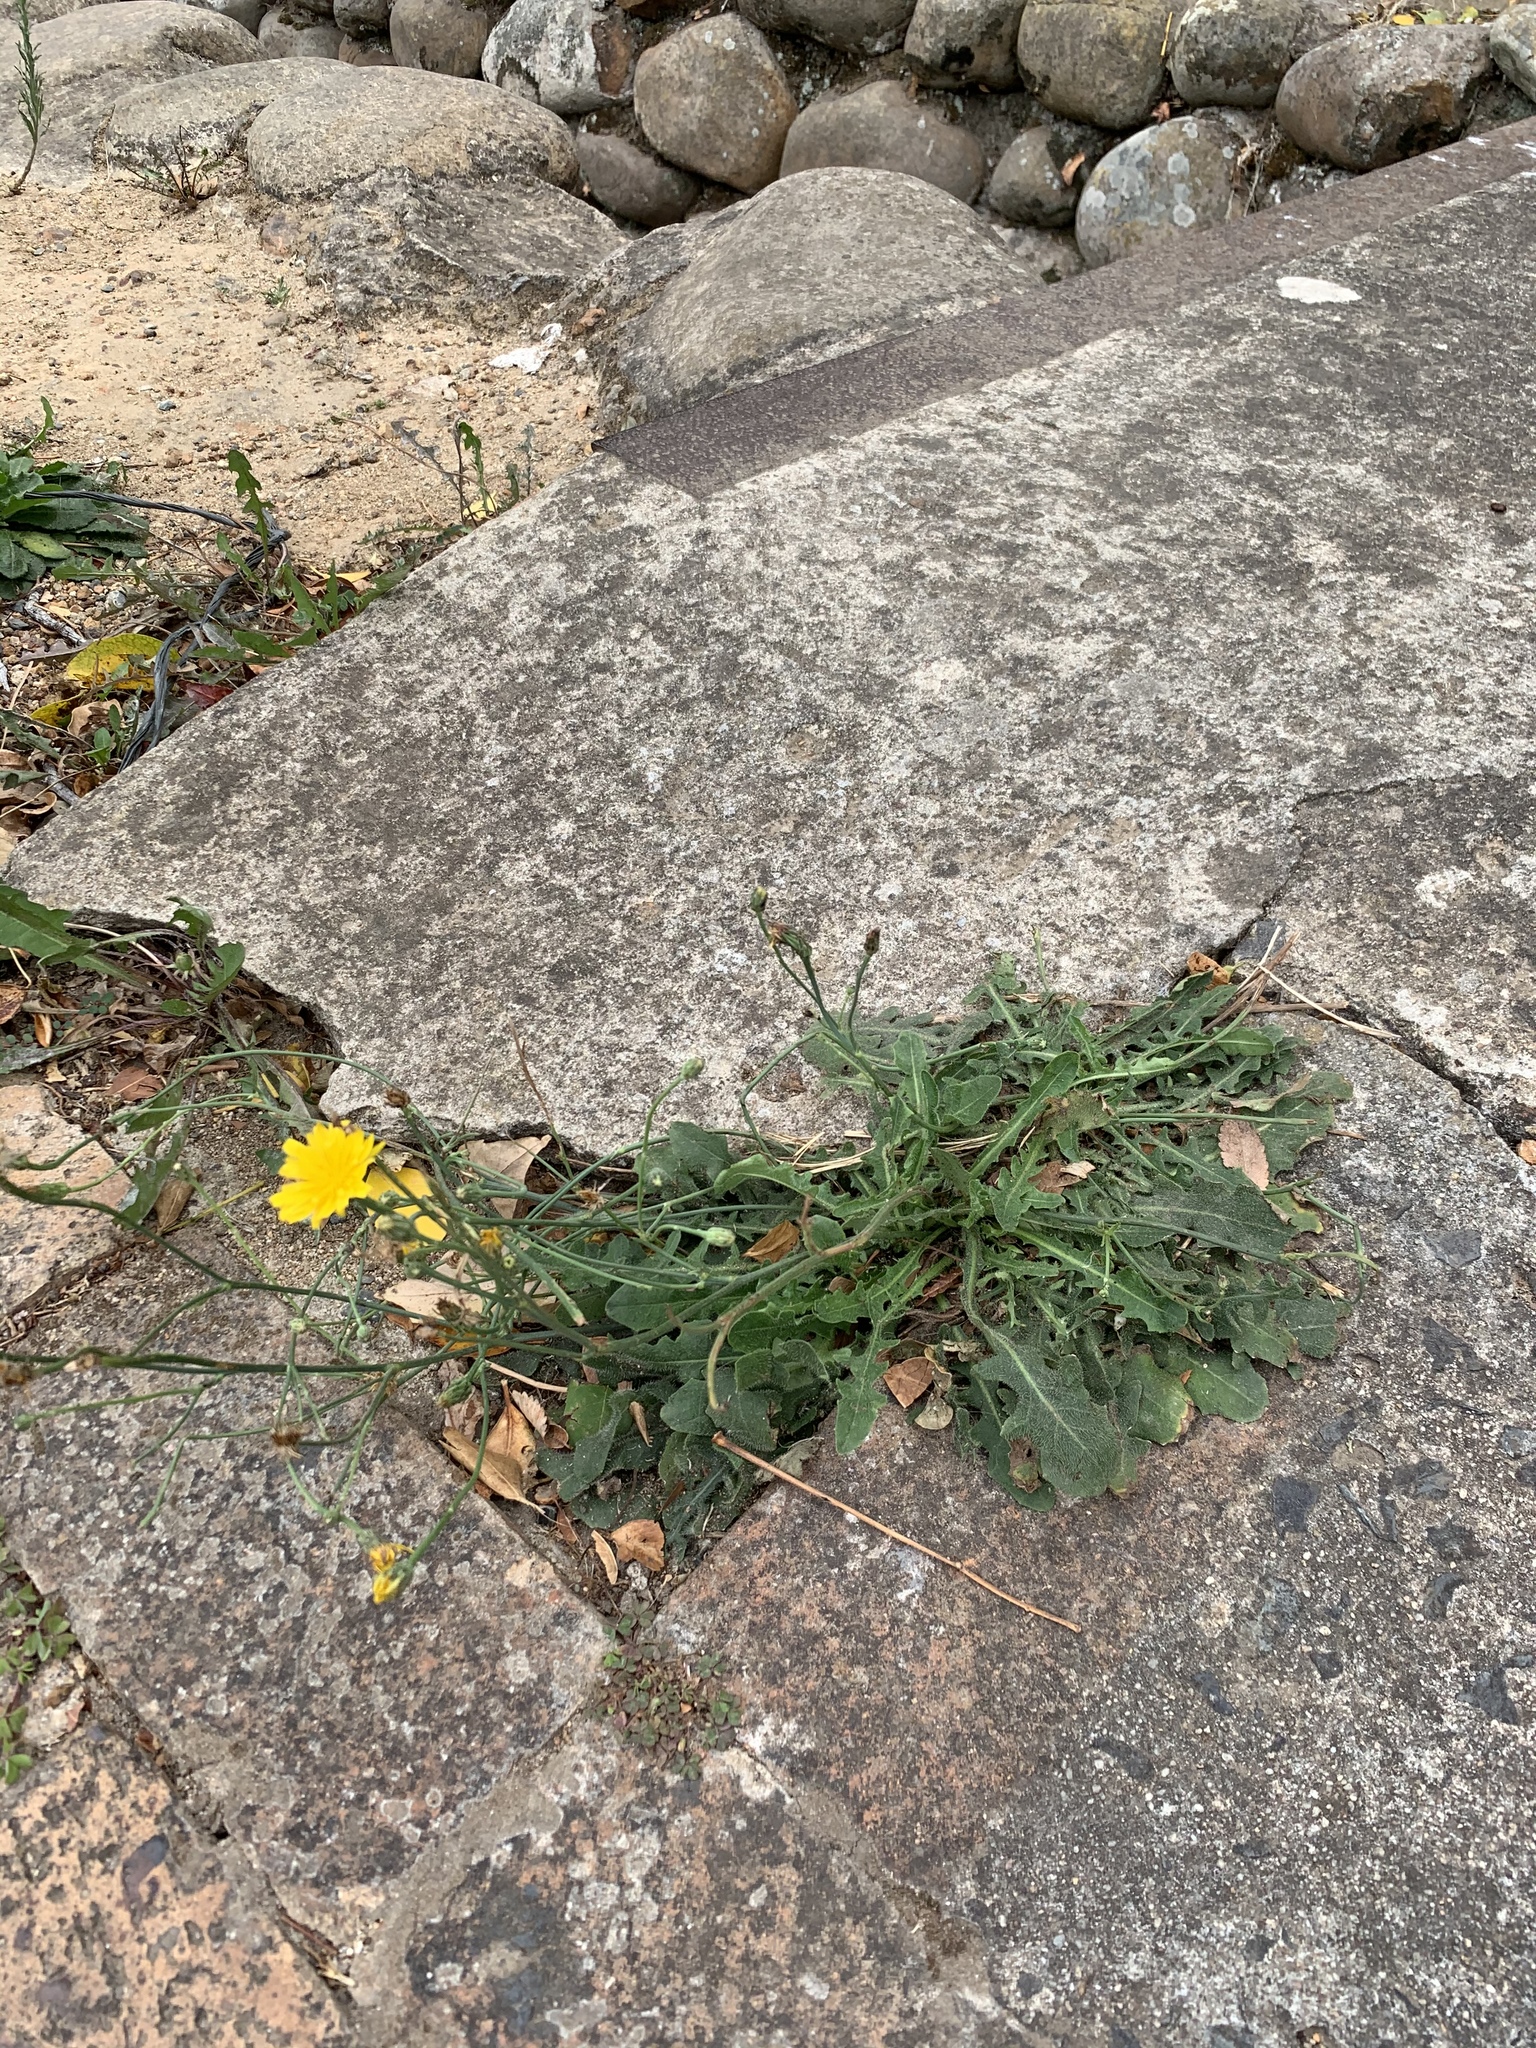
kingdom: Plantae
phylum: Tracheophyta
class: Magnoliopsida
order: Asterales
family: Asteraceae
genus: Hypochaeris
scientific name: Hypochaeris radicata
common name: Flatweed
